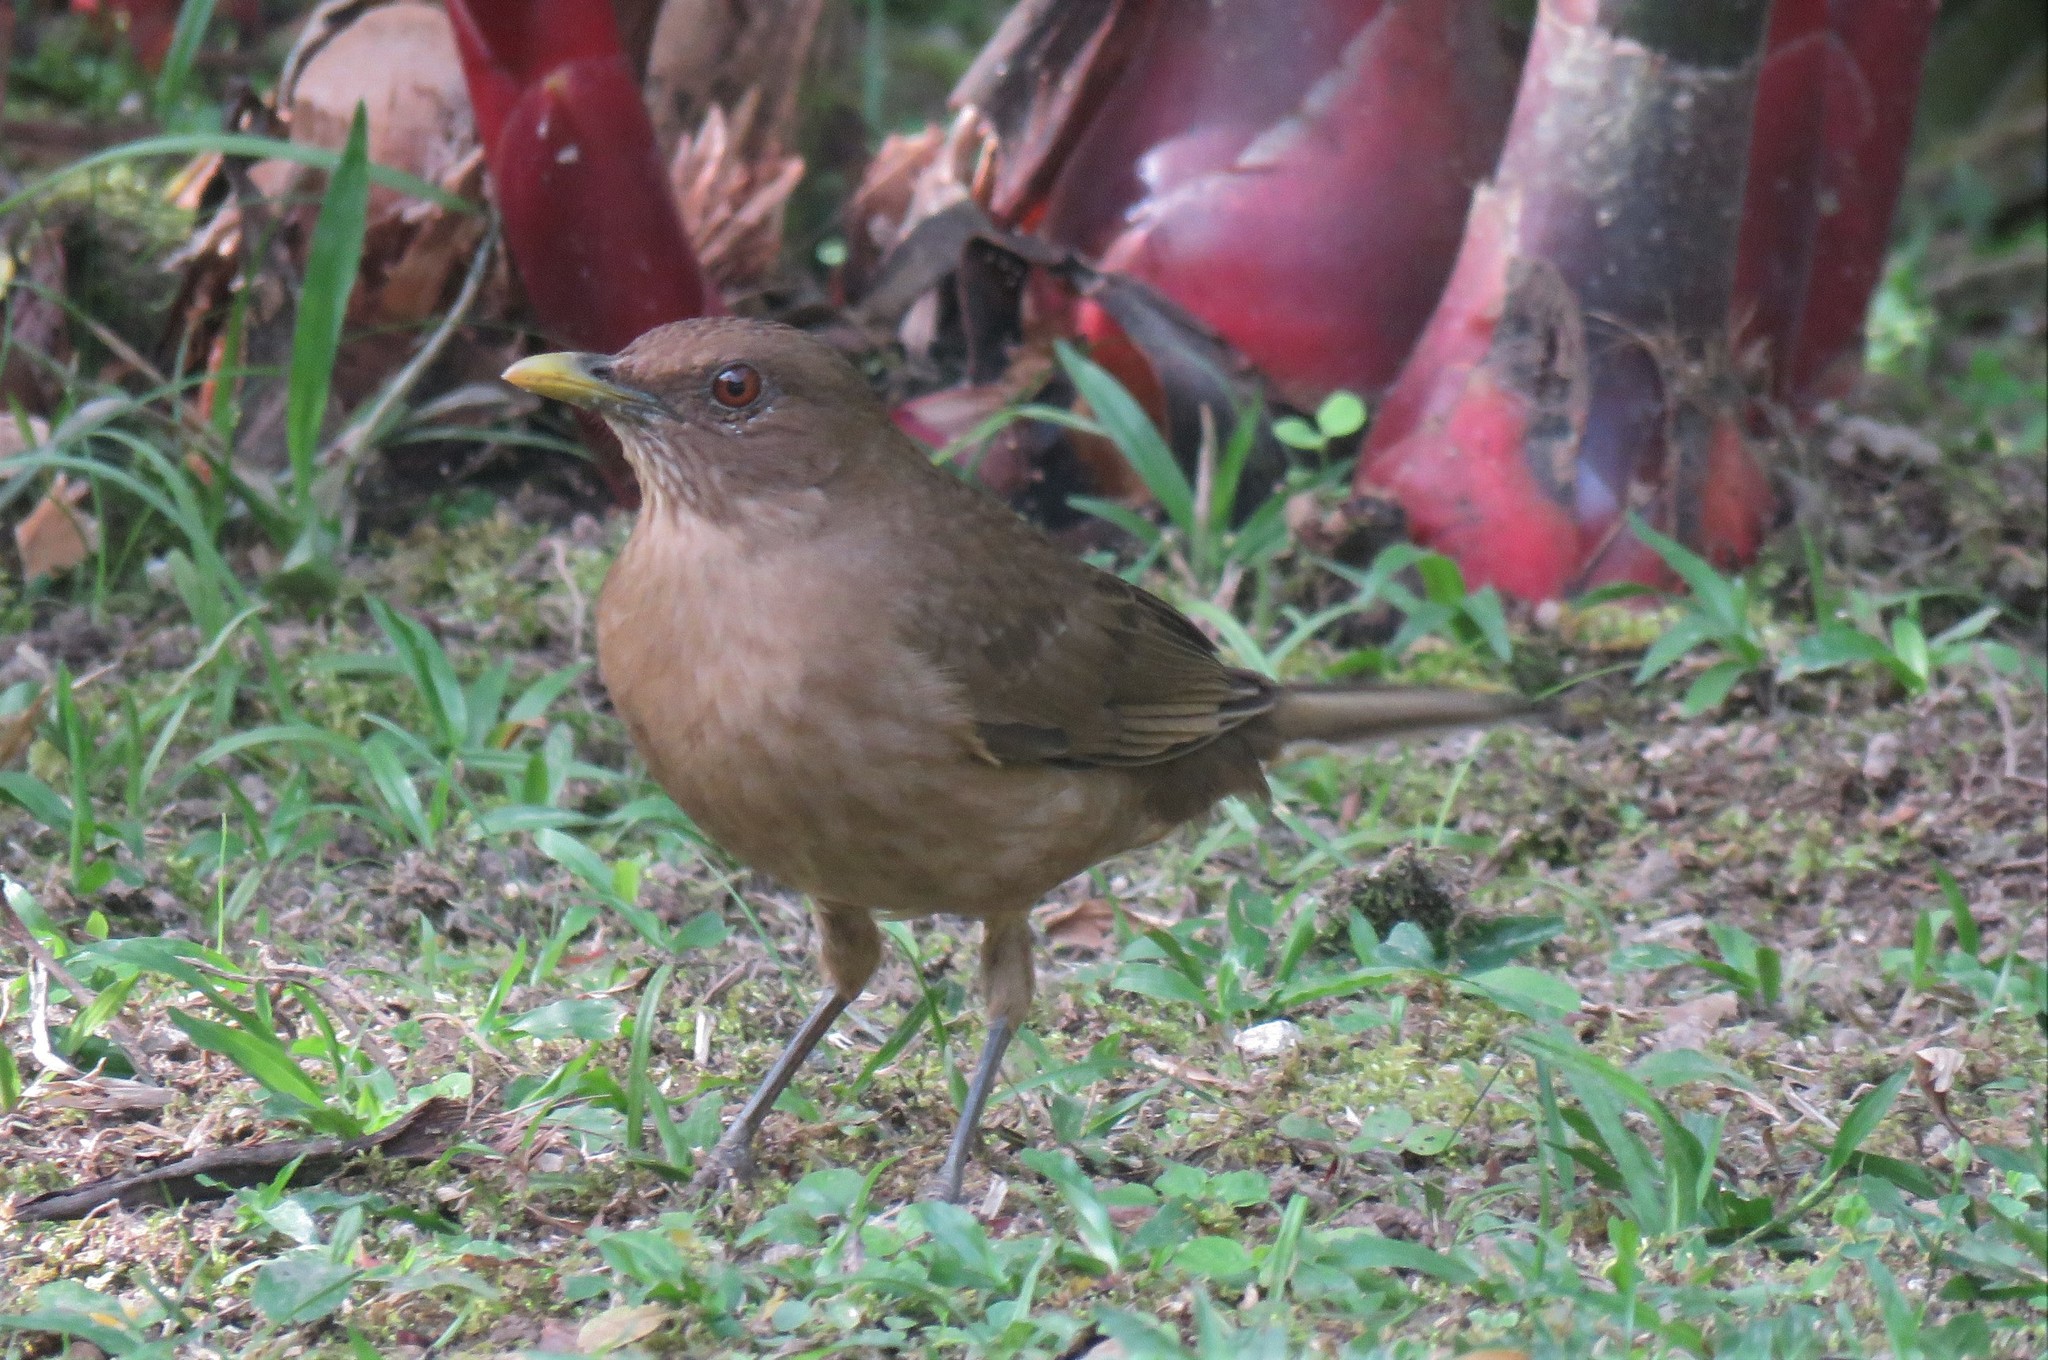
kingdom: Animalia
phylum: Chordata
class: Aves
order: Passeriformes
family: Turdidae
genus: Turdus
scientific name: Turdus grayi
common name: Clay-colored thrush
